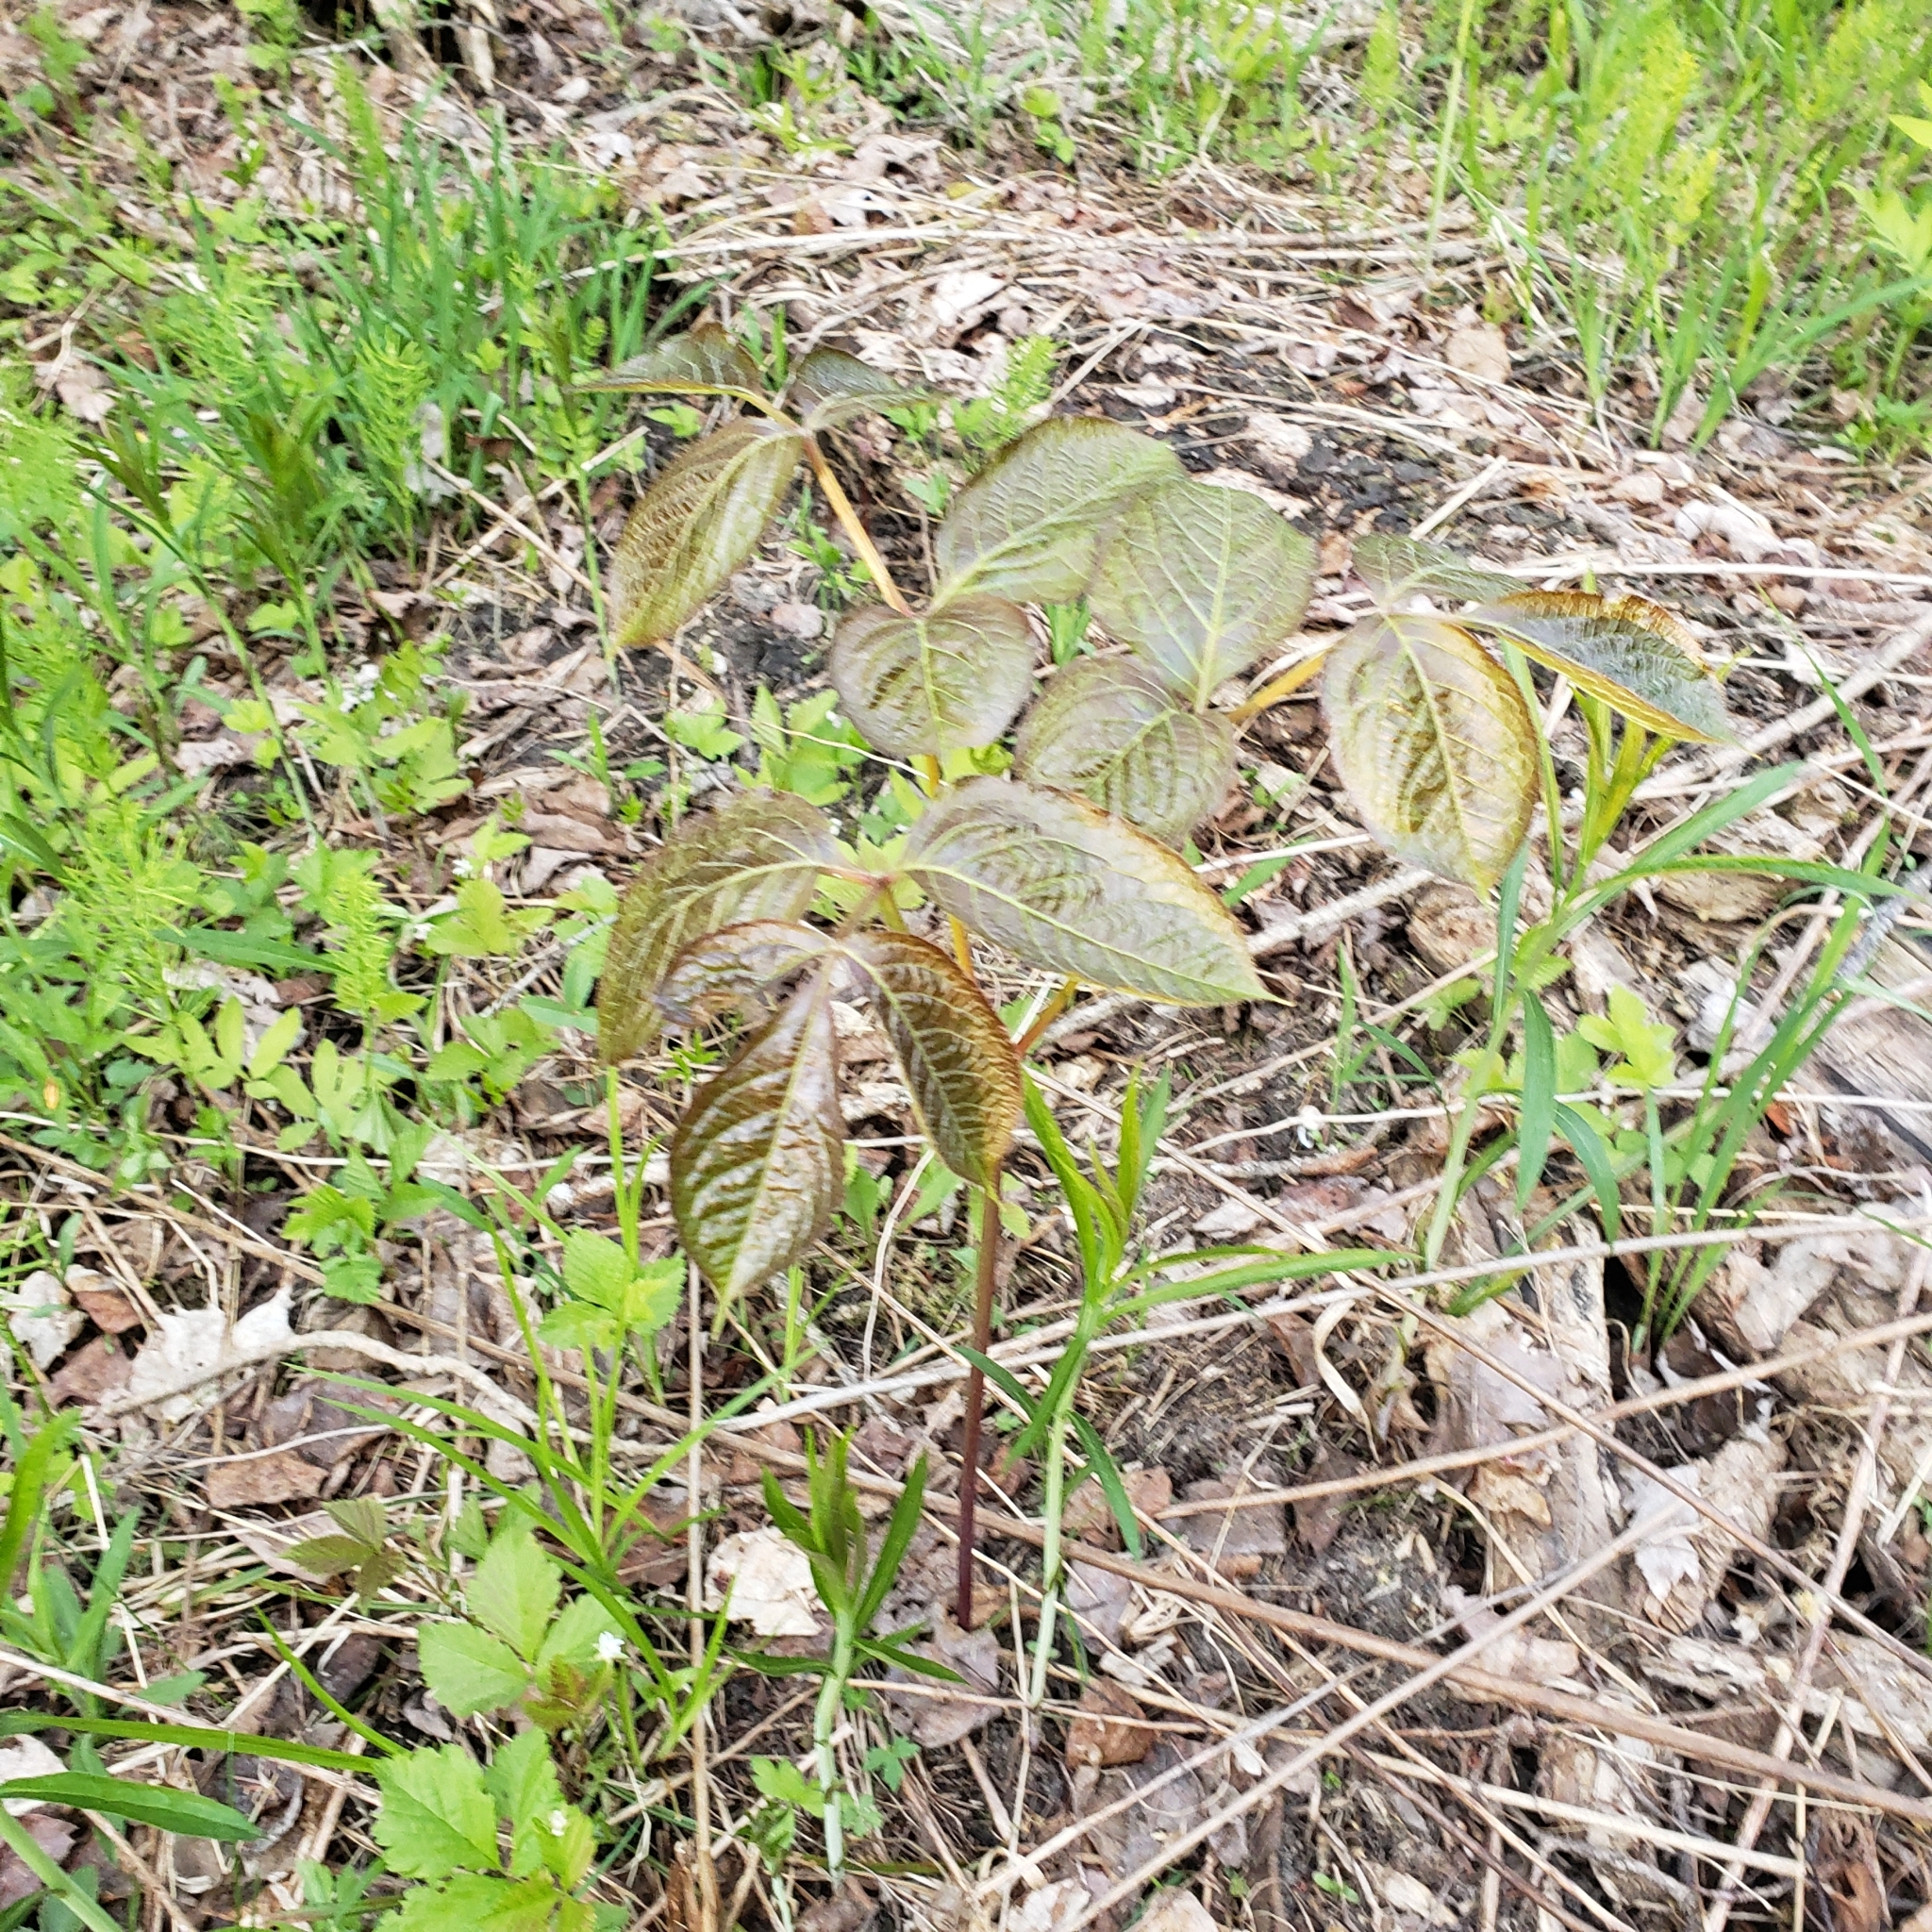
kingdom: Plantae
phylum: Tracheophyta
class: Magnoliopsida
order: Apiales
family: Araliaceae
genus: Aralia
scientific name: Aralia nudicaulis
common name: Wild sarsaparilla
